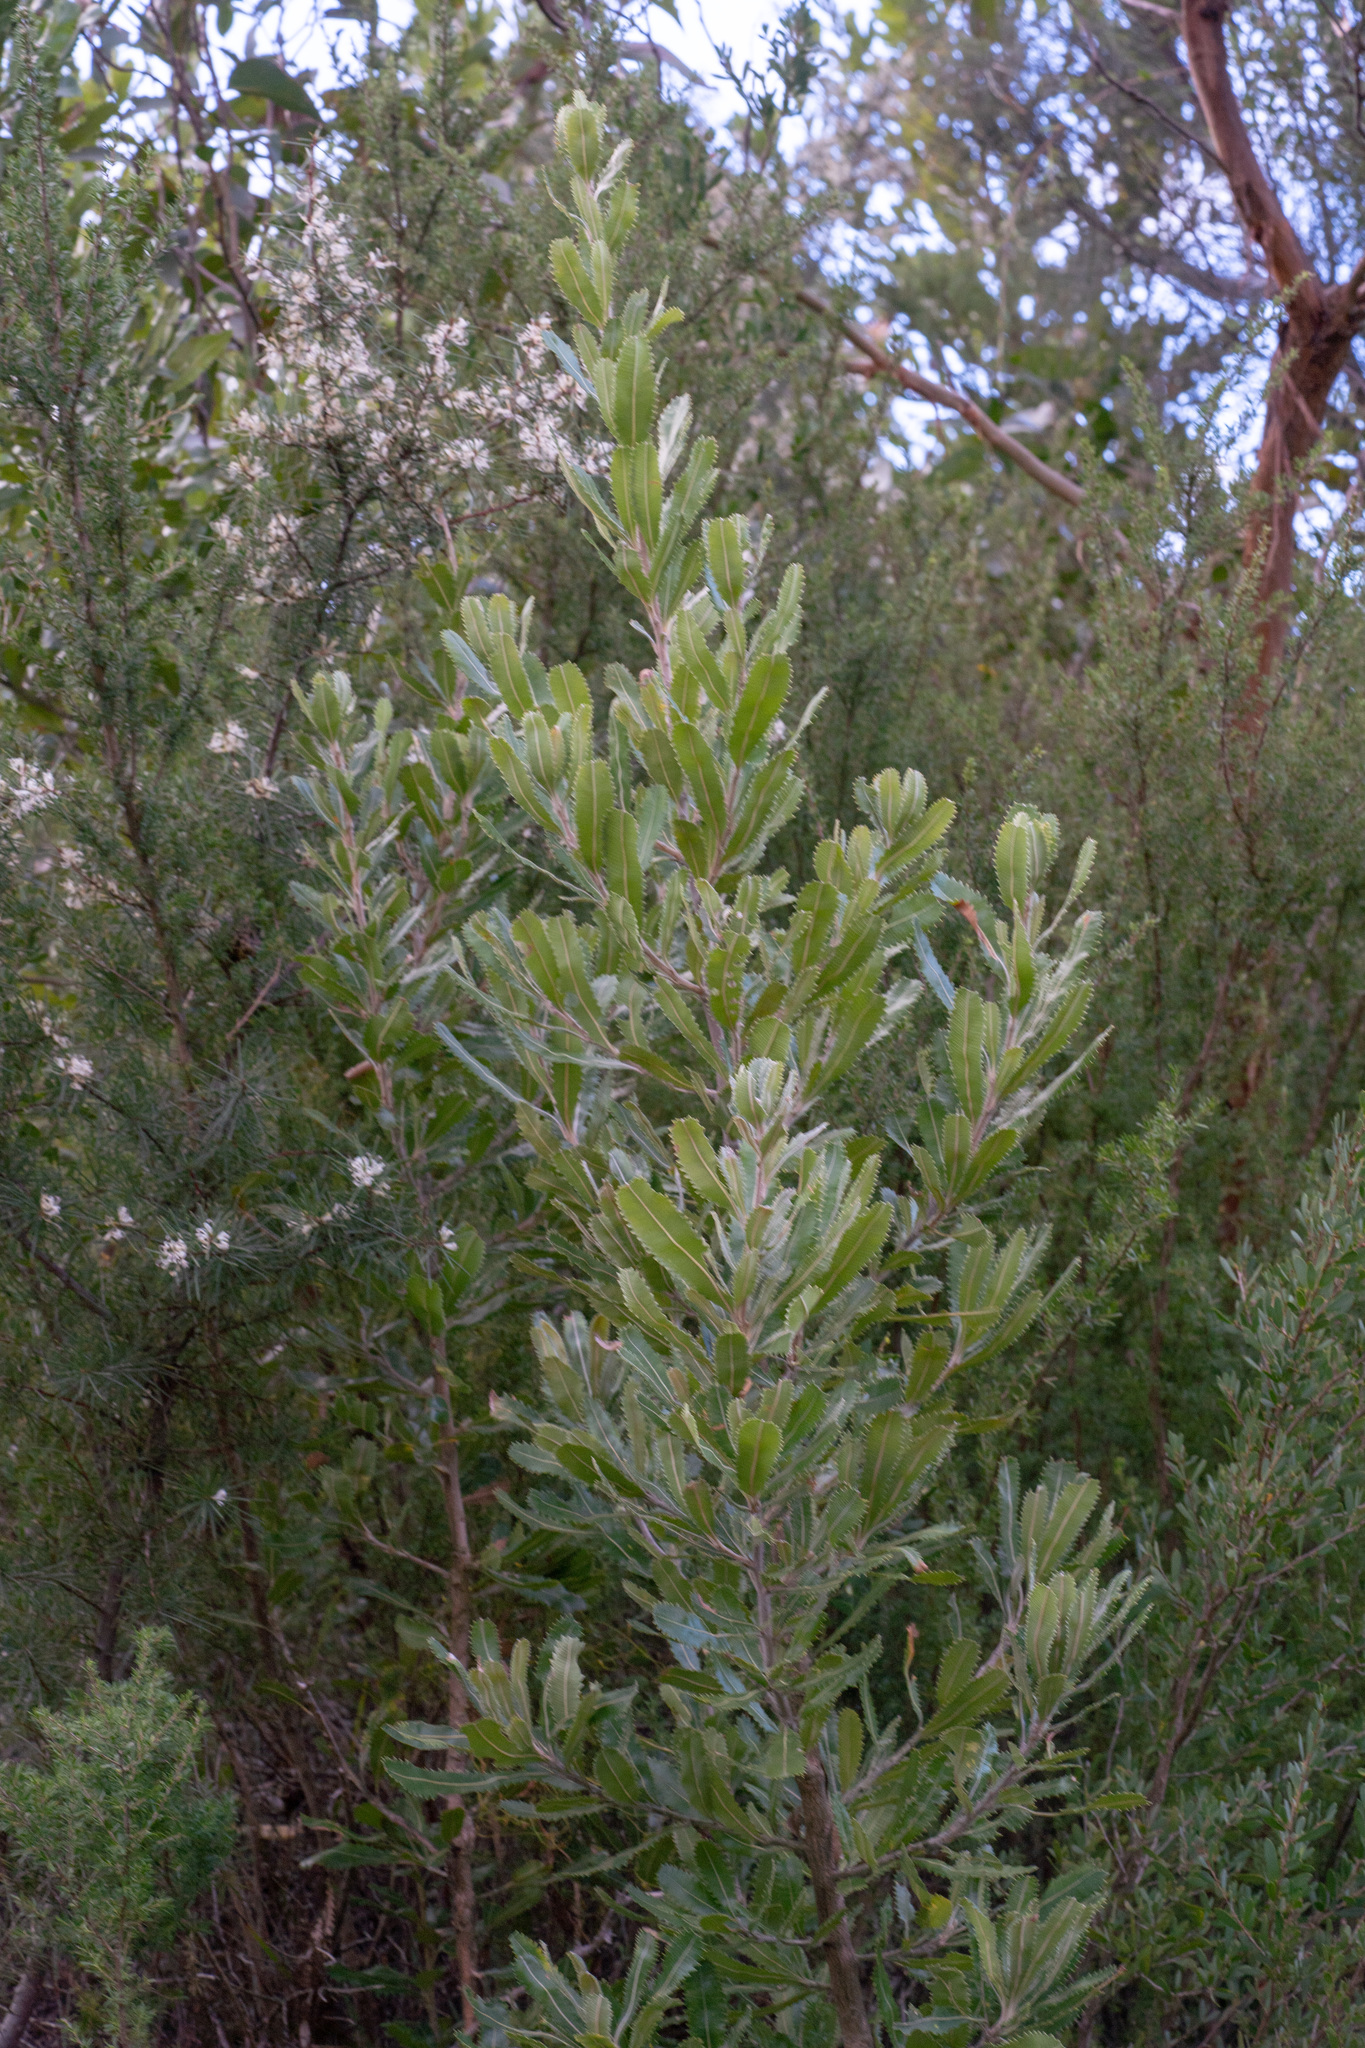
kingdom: Plantae
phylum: Tracheophyta
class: Magnoliopsida
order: Proteales
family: Proteaceae
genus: Banksia
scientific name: Banksia serrata
